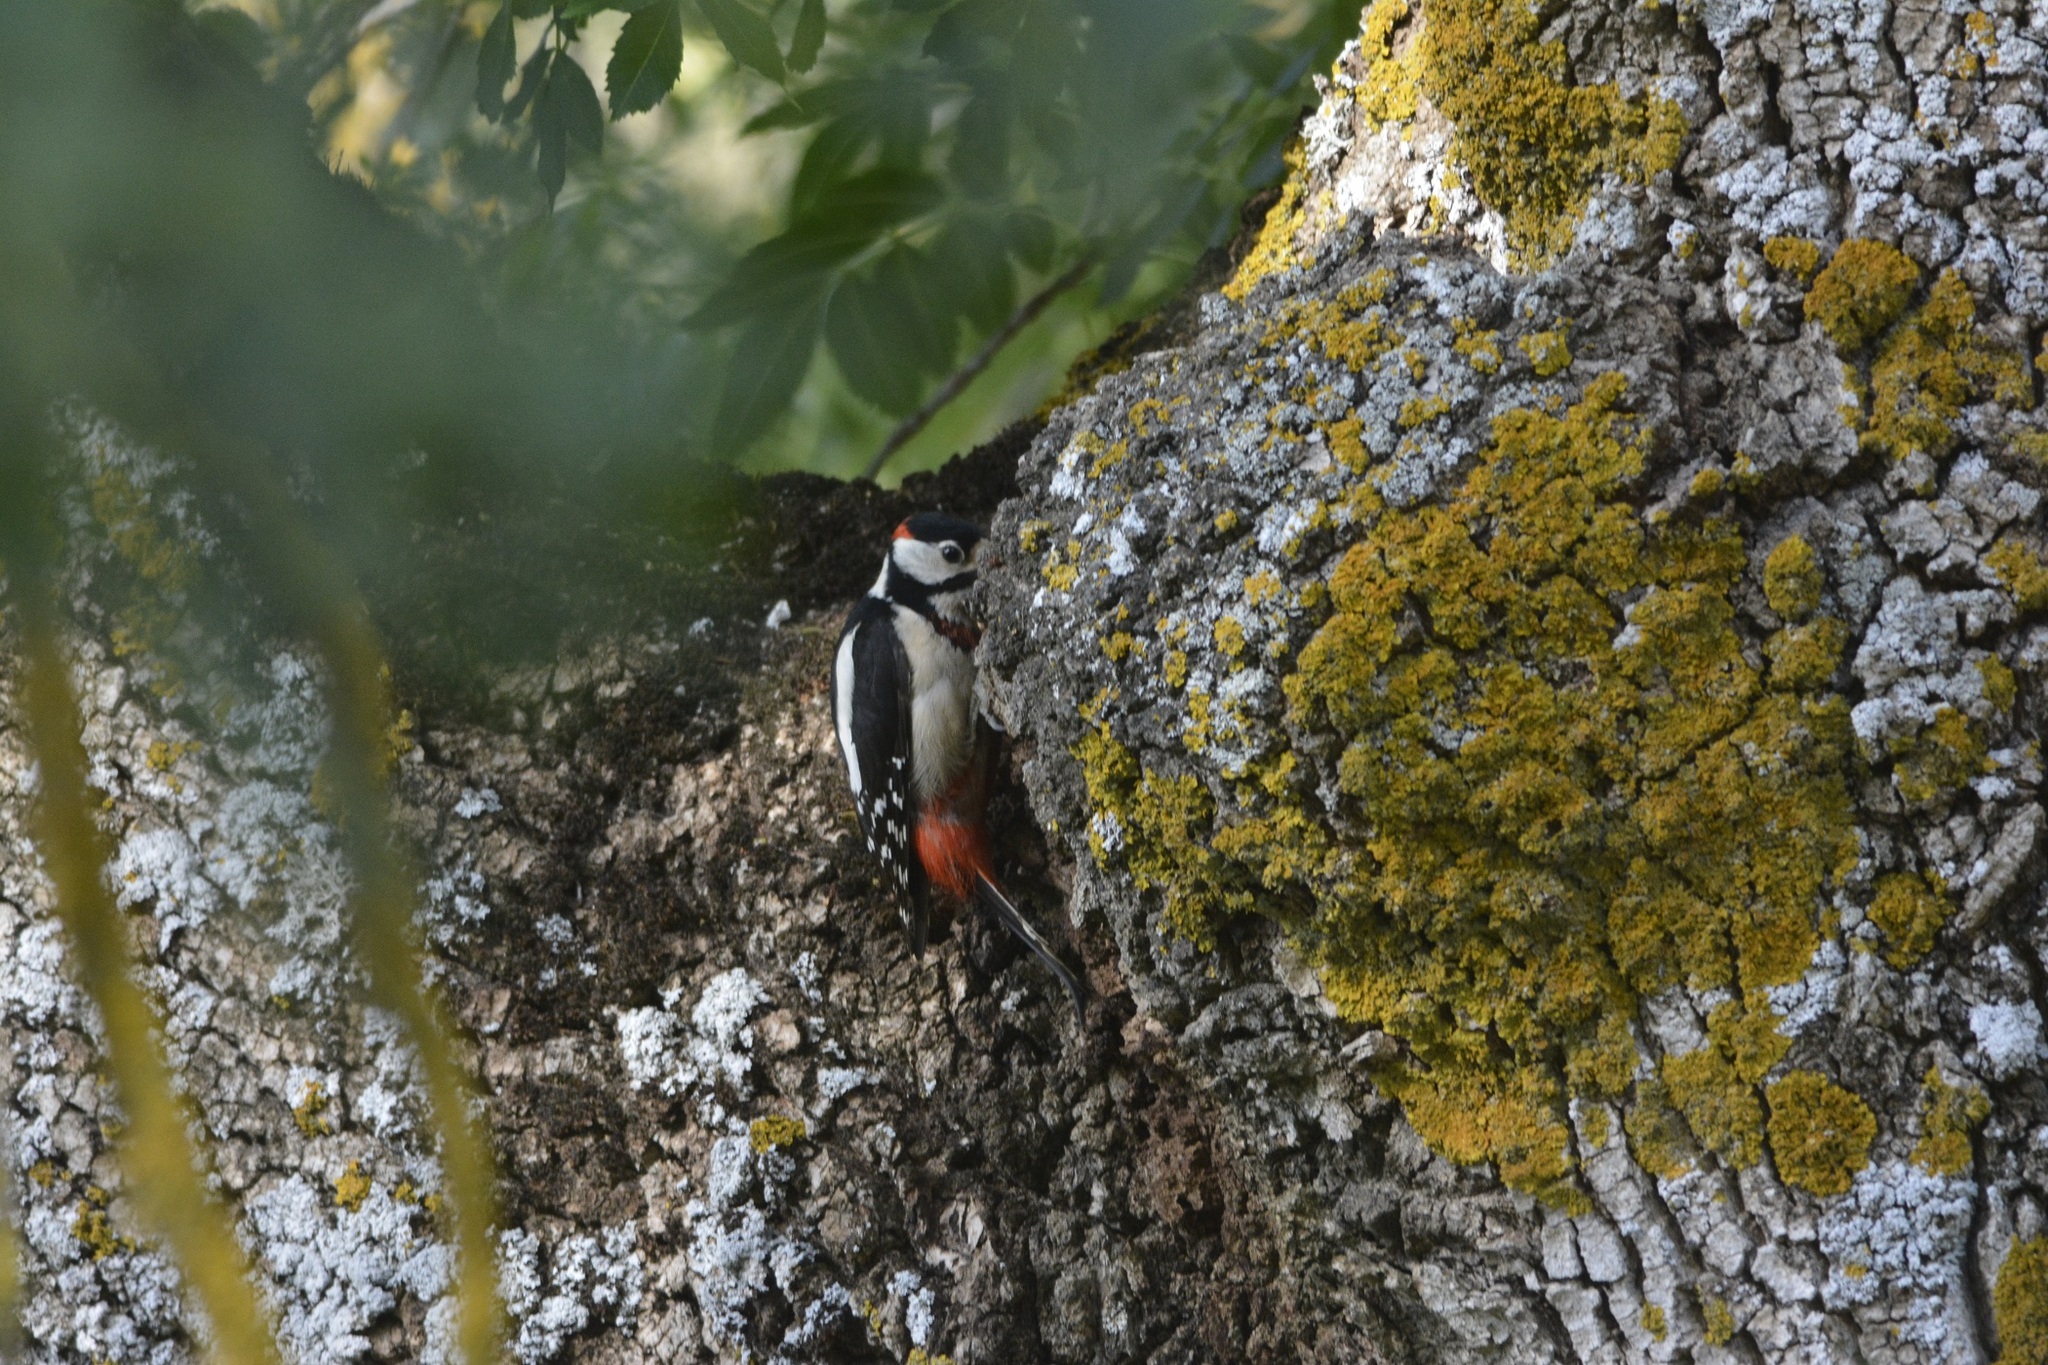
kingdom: Animalia
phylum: Chordata
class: Aves
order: Piciformes
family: Picidae
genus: Dendrocopos
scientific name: Dendrocopos major
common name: Great spotted woodpecker
